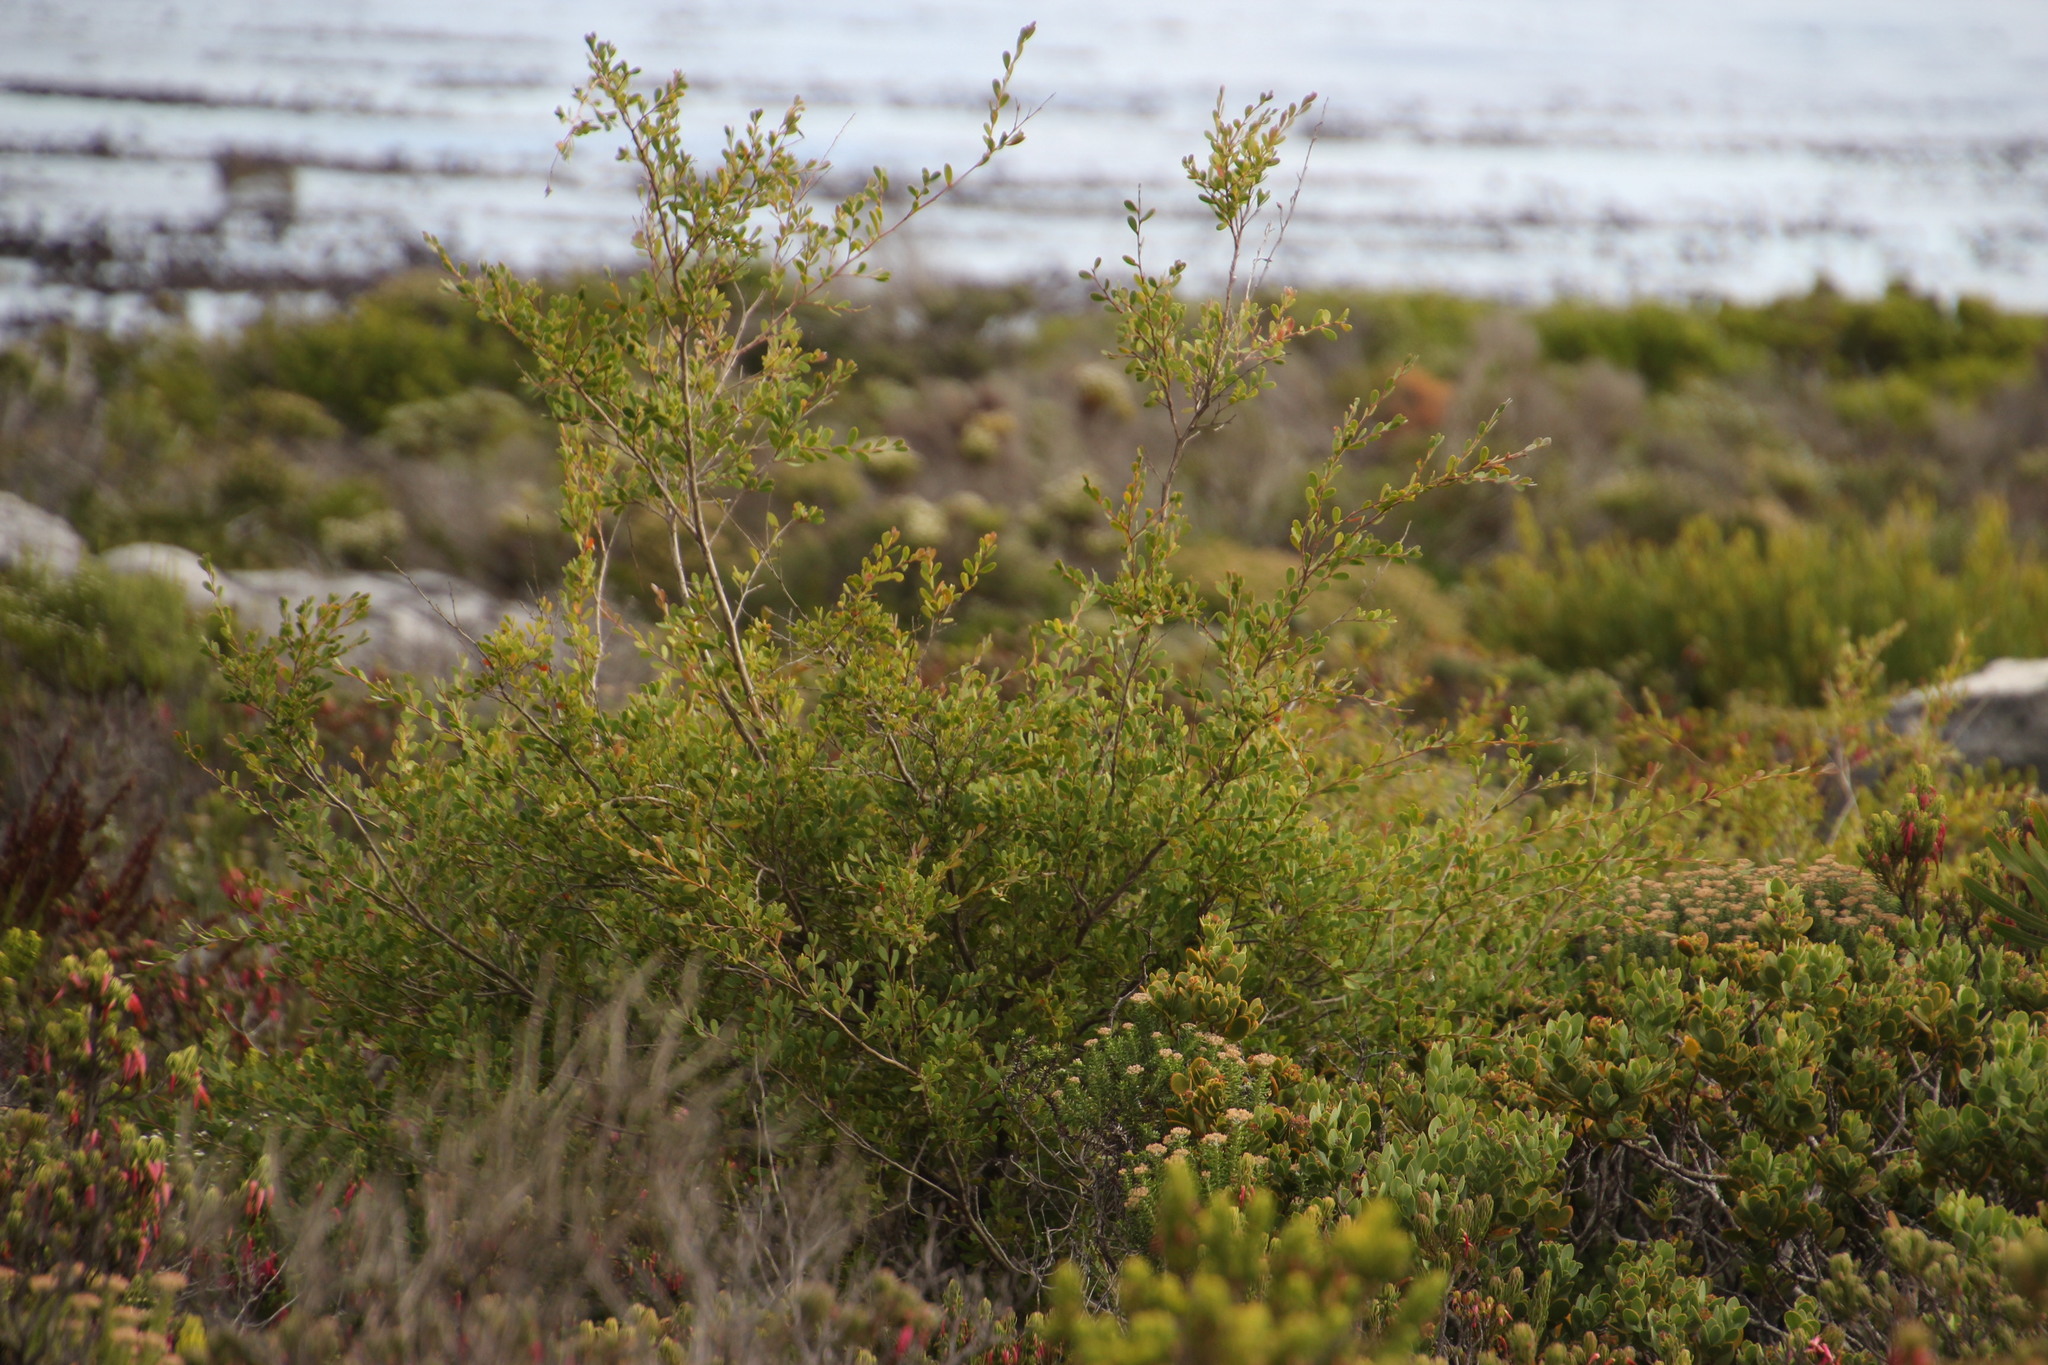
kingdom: Plantae
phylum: Tracheophyta
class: Magnoliopsida
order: Myrtales
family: Myrtaceae
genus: Leptospermum
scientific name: Leptospermum laevigatum
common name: Australian teatree
